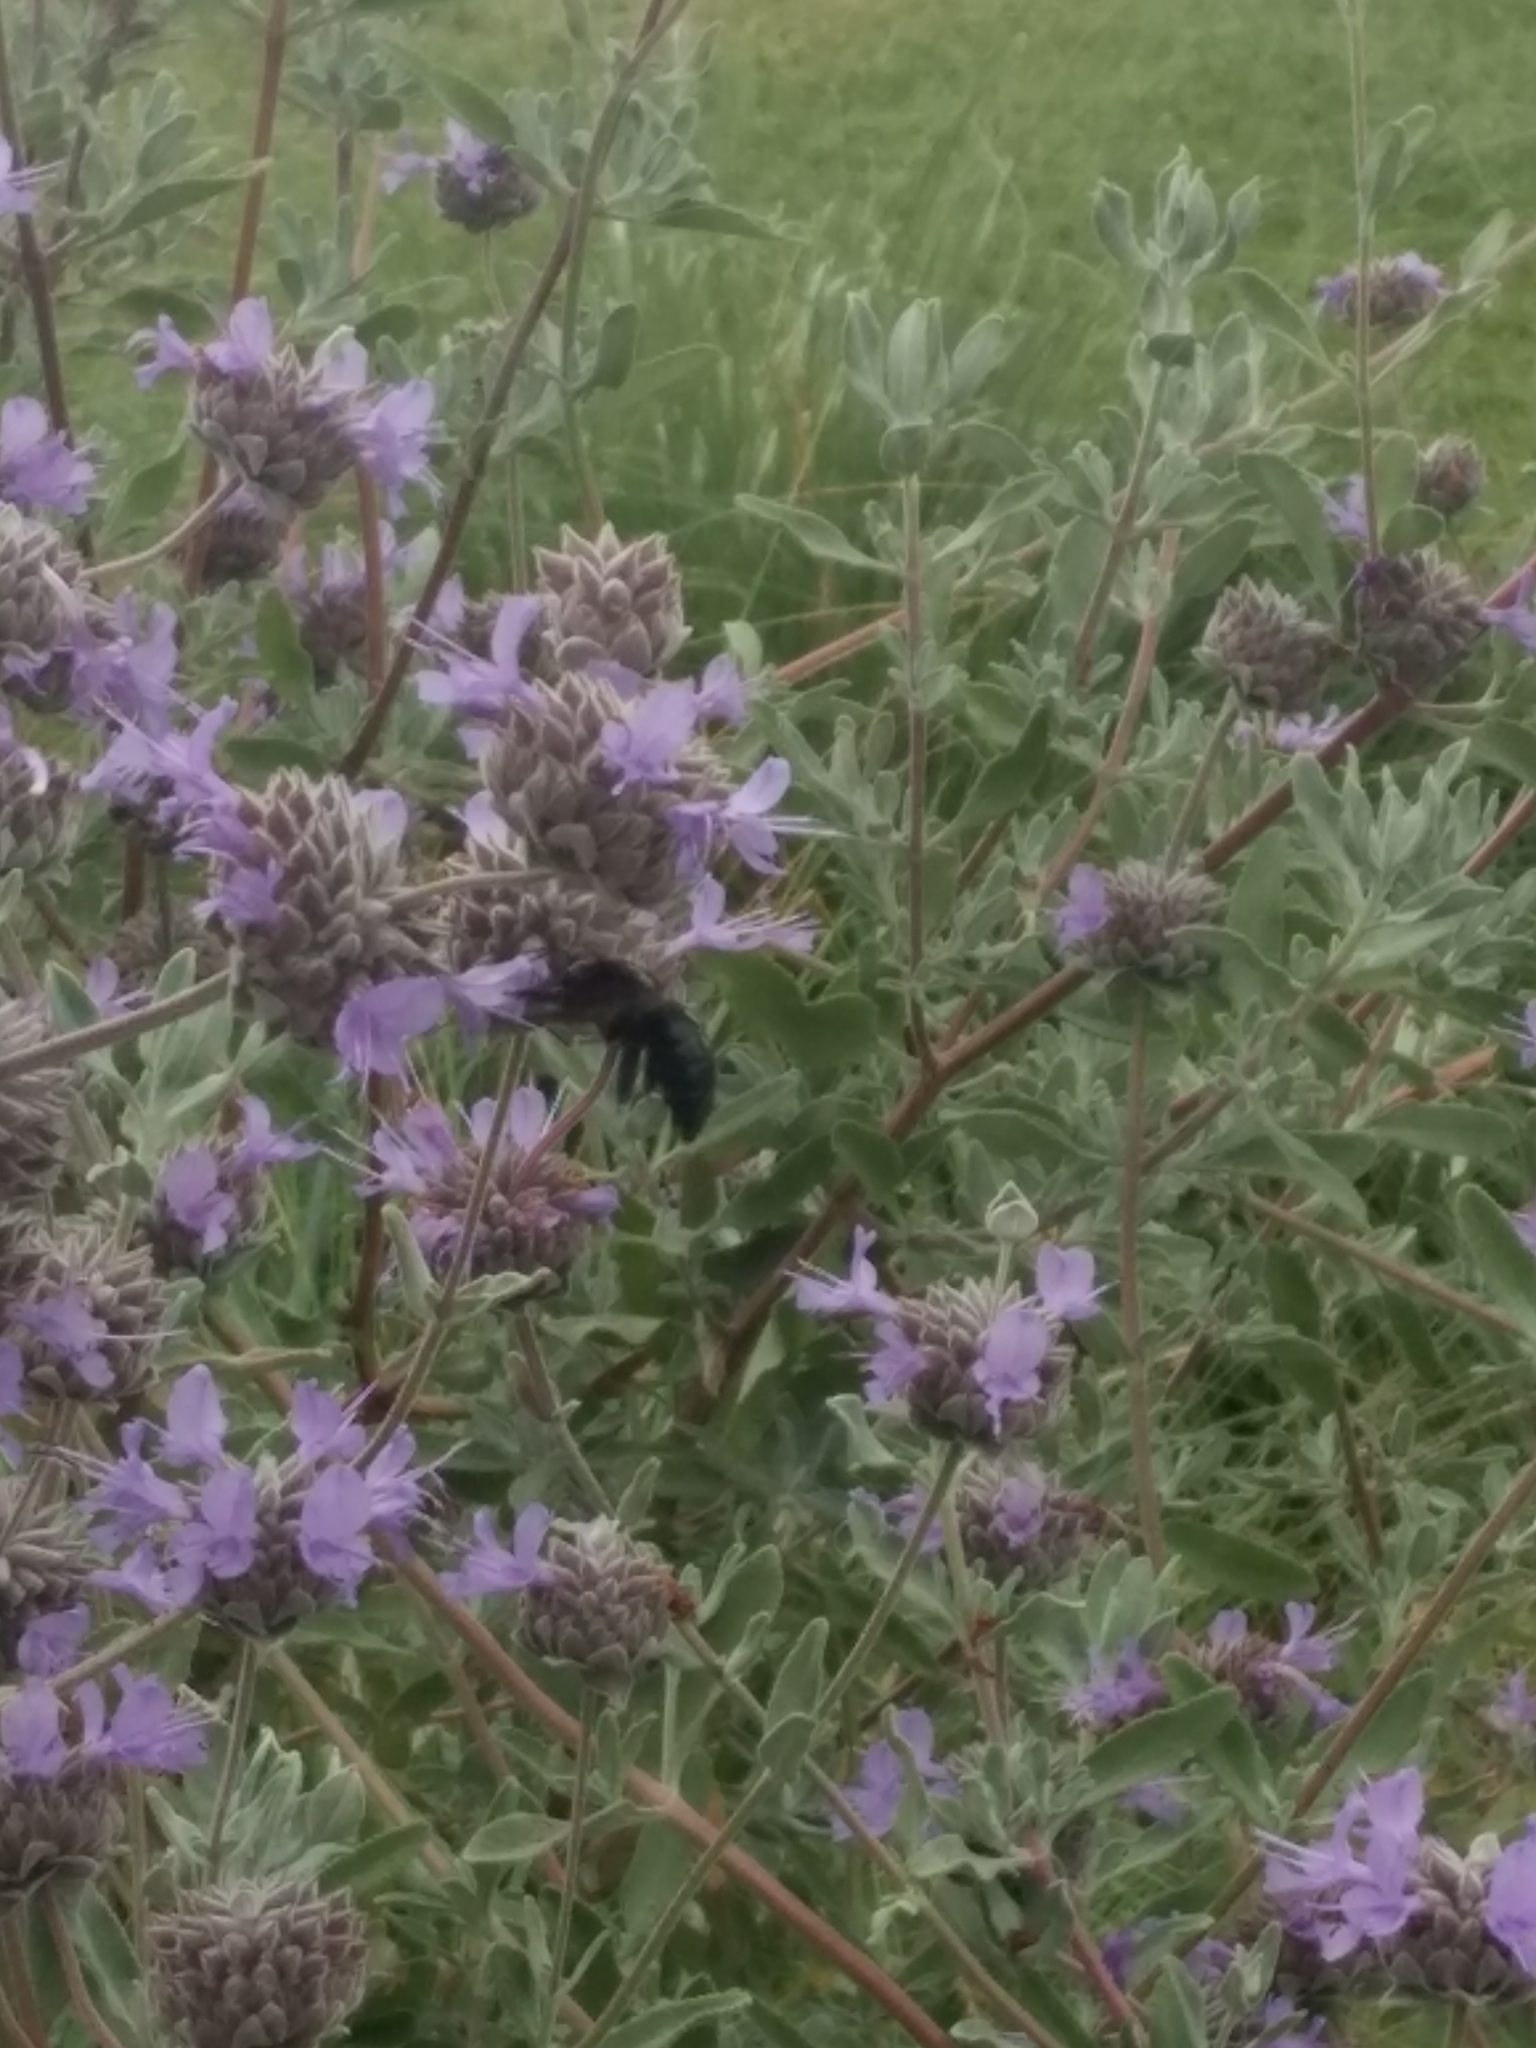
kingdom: Animalia
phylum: Arthropoda
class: Insecta
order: Hymenoptera
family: Apidae
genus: Xylocopa
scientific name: Xylocopa sonorina
